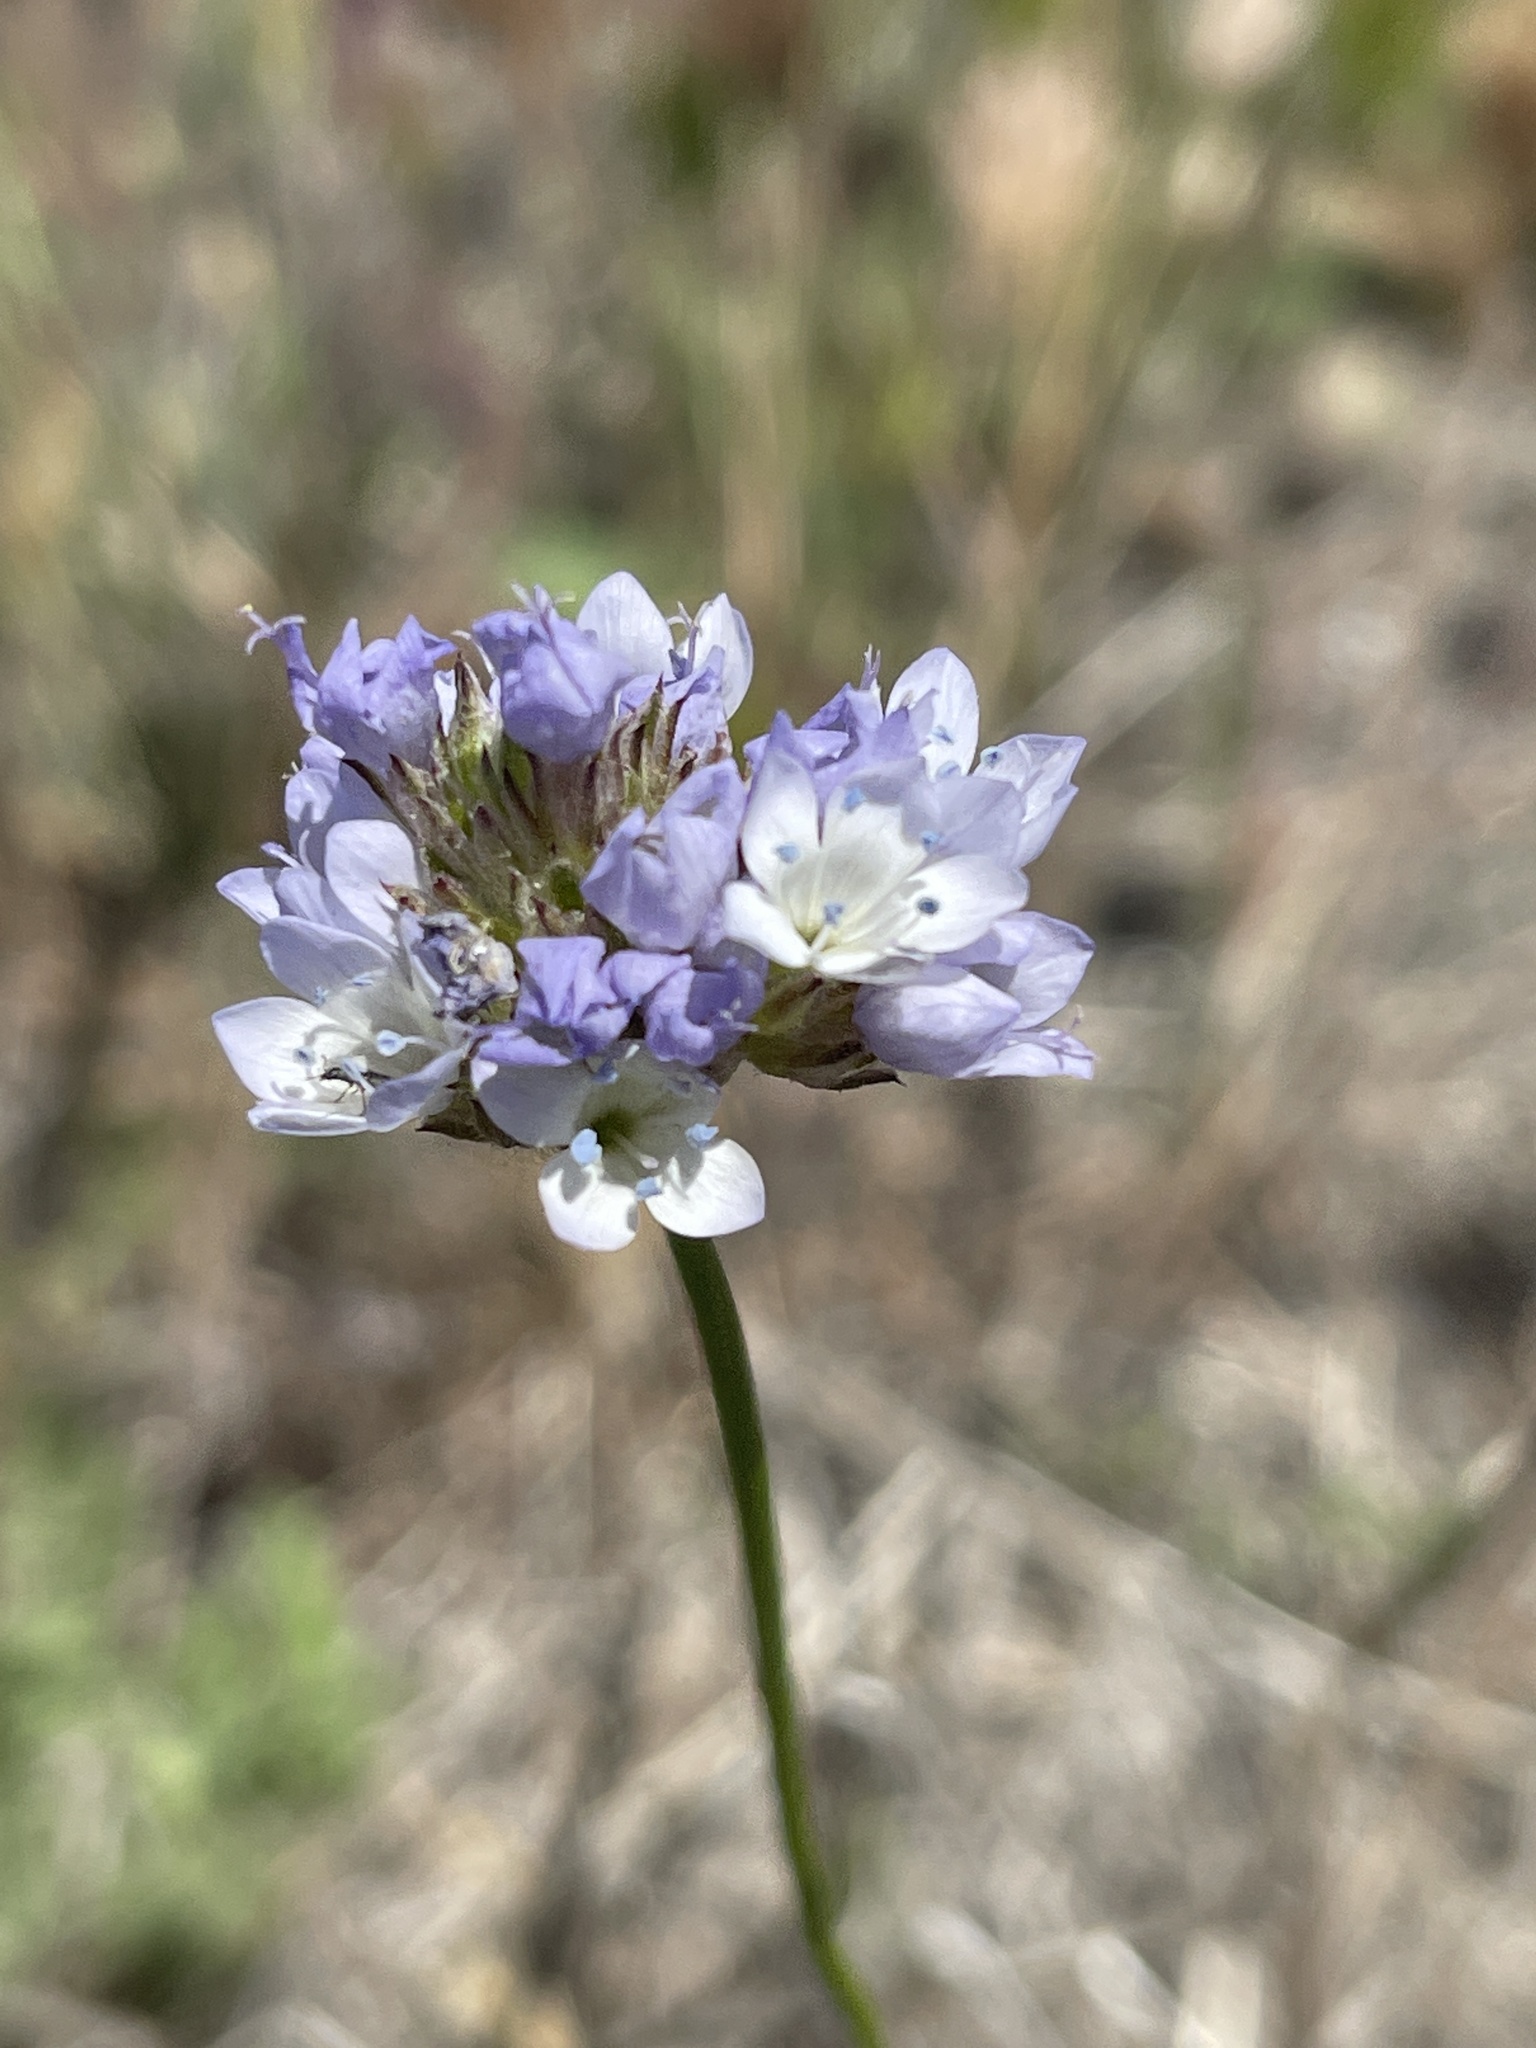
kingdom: Plantae
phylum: Tracheophyta
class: Magnoliopsida
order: Ericales
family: Polemoniaceae
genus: Gilia
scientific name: Gilia capitata
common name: Bluehead gilia
